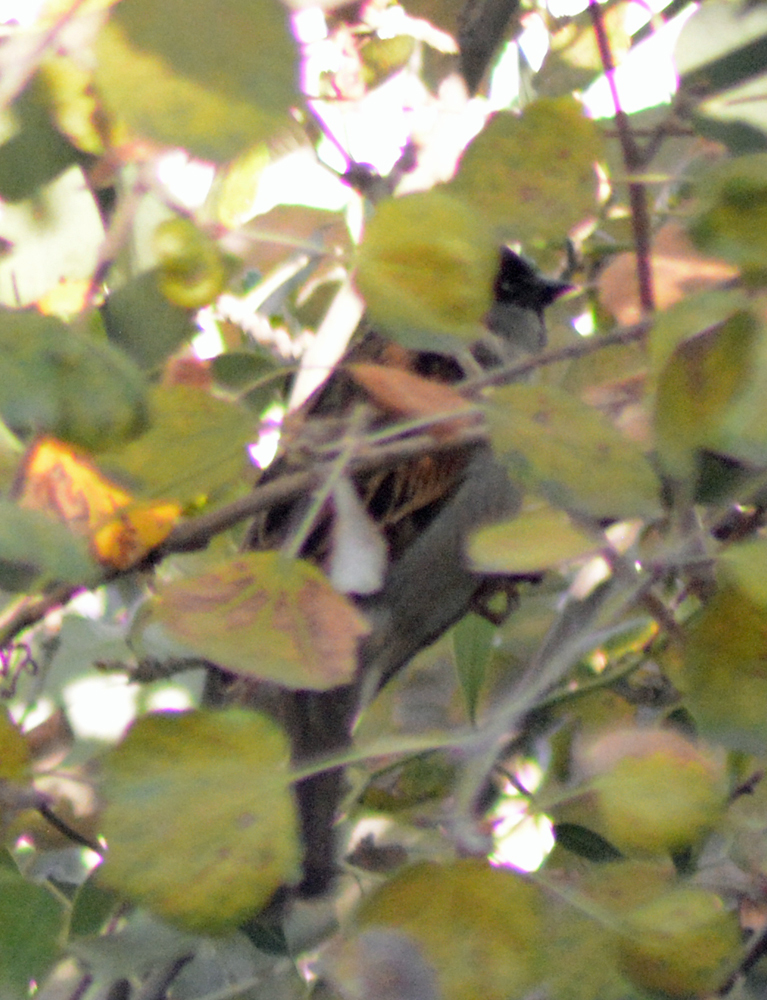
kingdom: Animalia
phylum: Chordata
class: Aves
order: Passeriformes
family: Passeridae
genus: Passer
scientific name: Passer domesticus
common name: House sparrow
